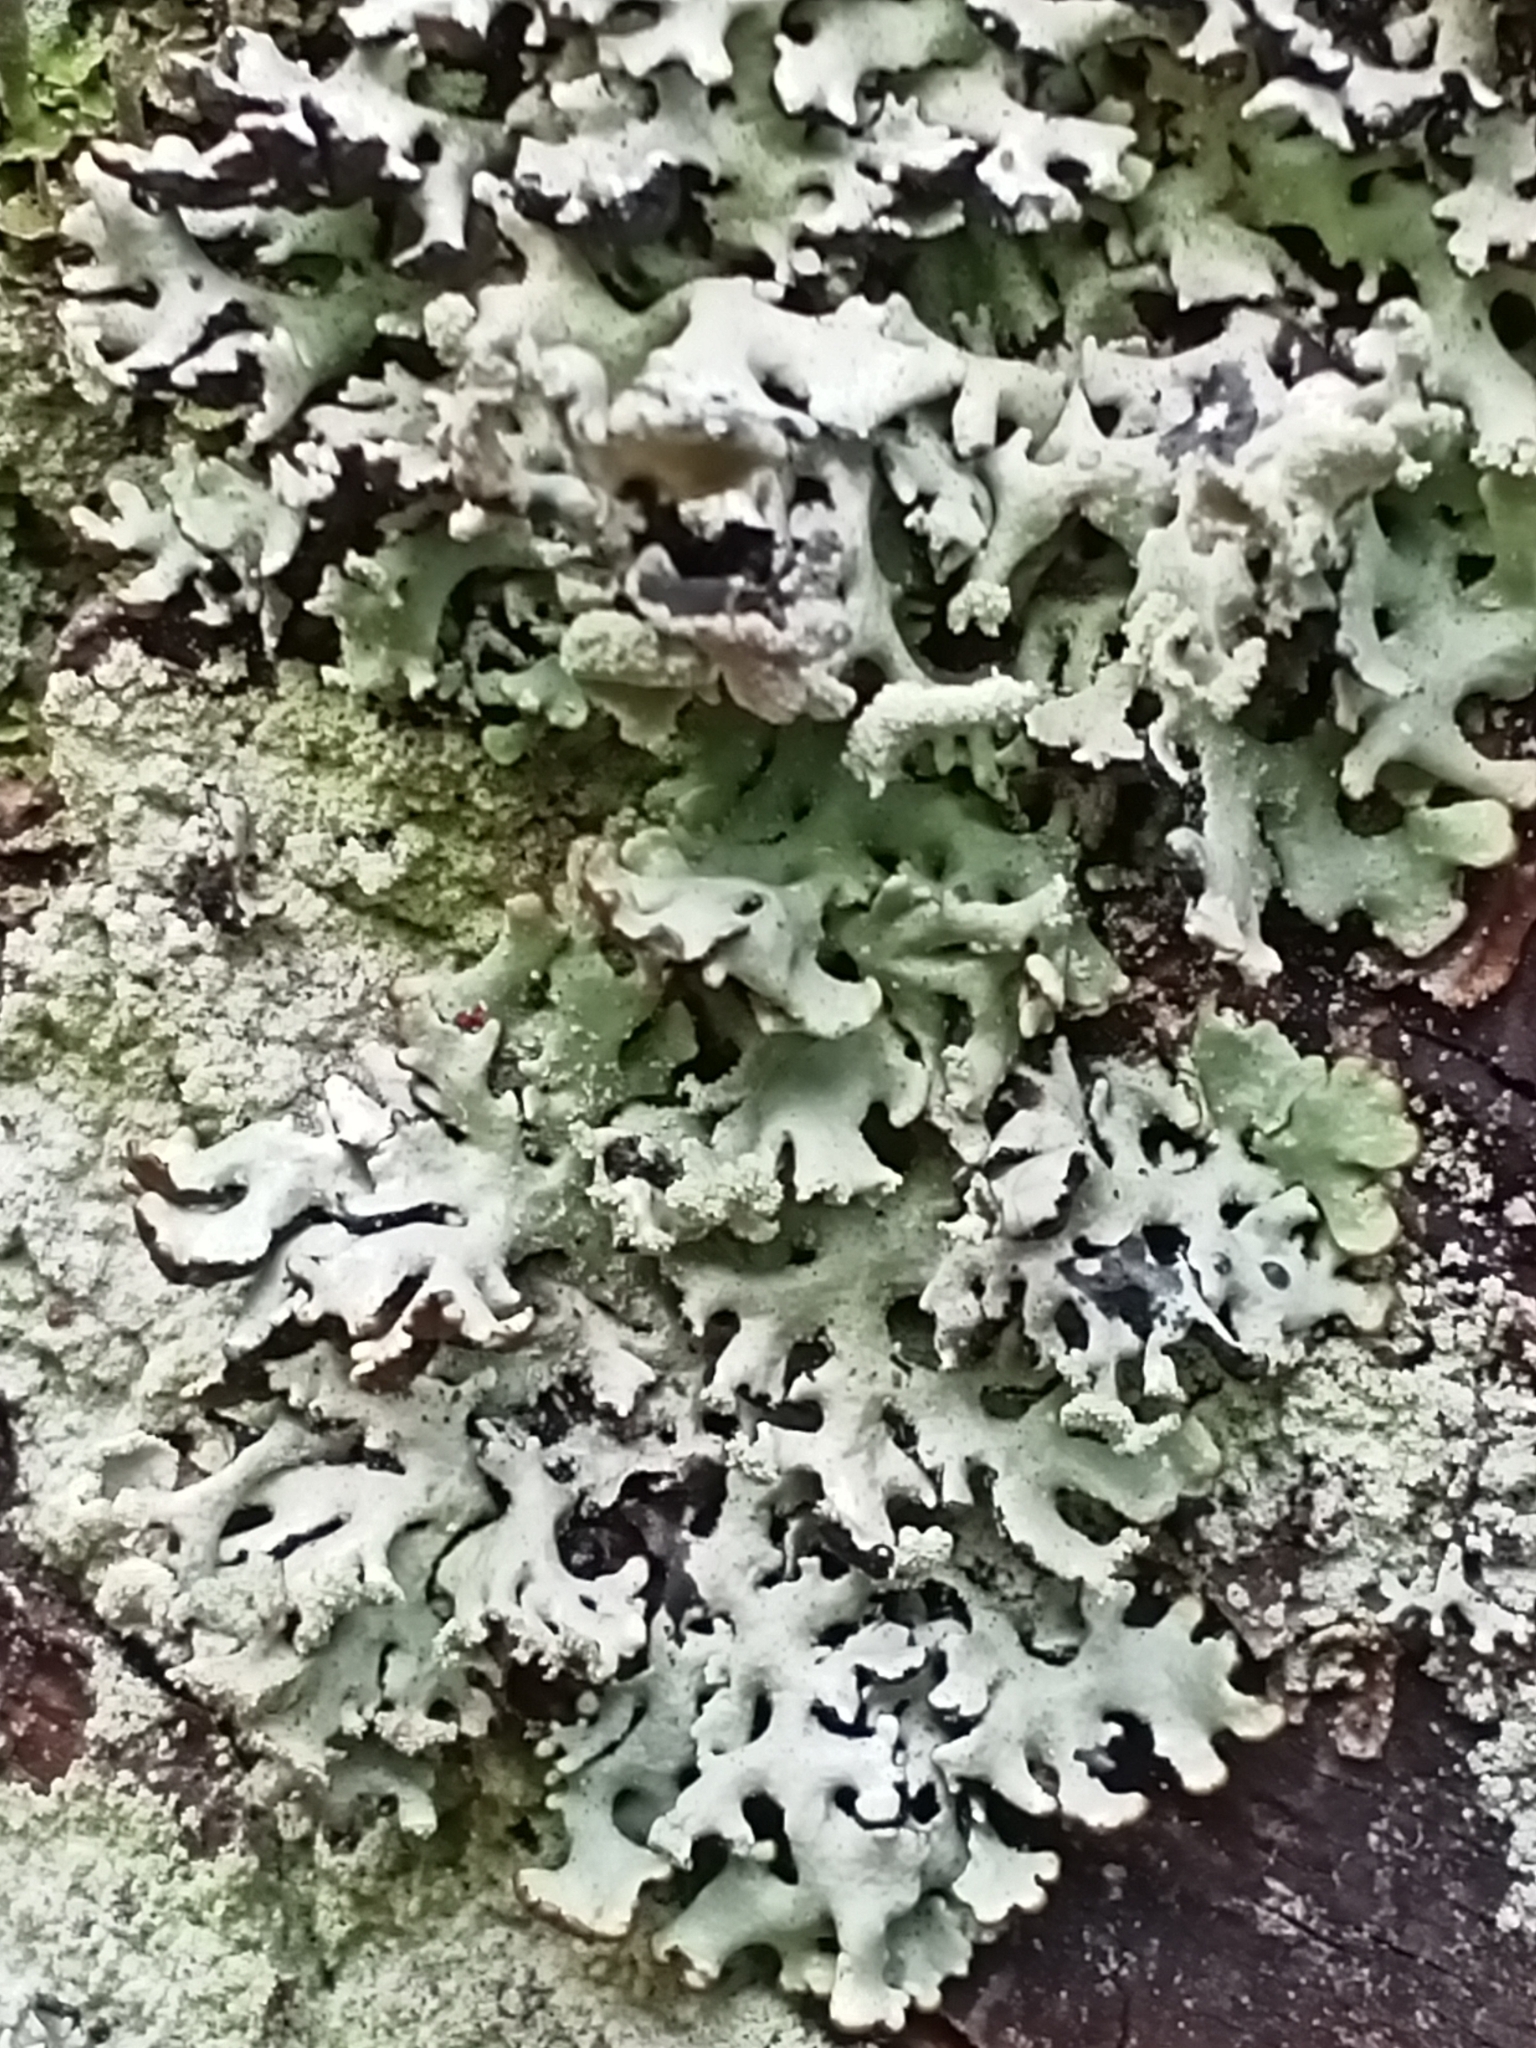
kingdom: Fungi
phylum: Ascomycota
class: Lecanoromycetes
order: Lecanorales
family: Parmeliaceae
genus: Hypogymnia
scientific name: Hypogymnia physodes
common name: Dark crottle
